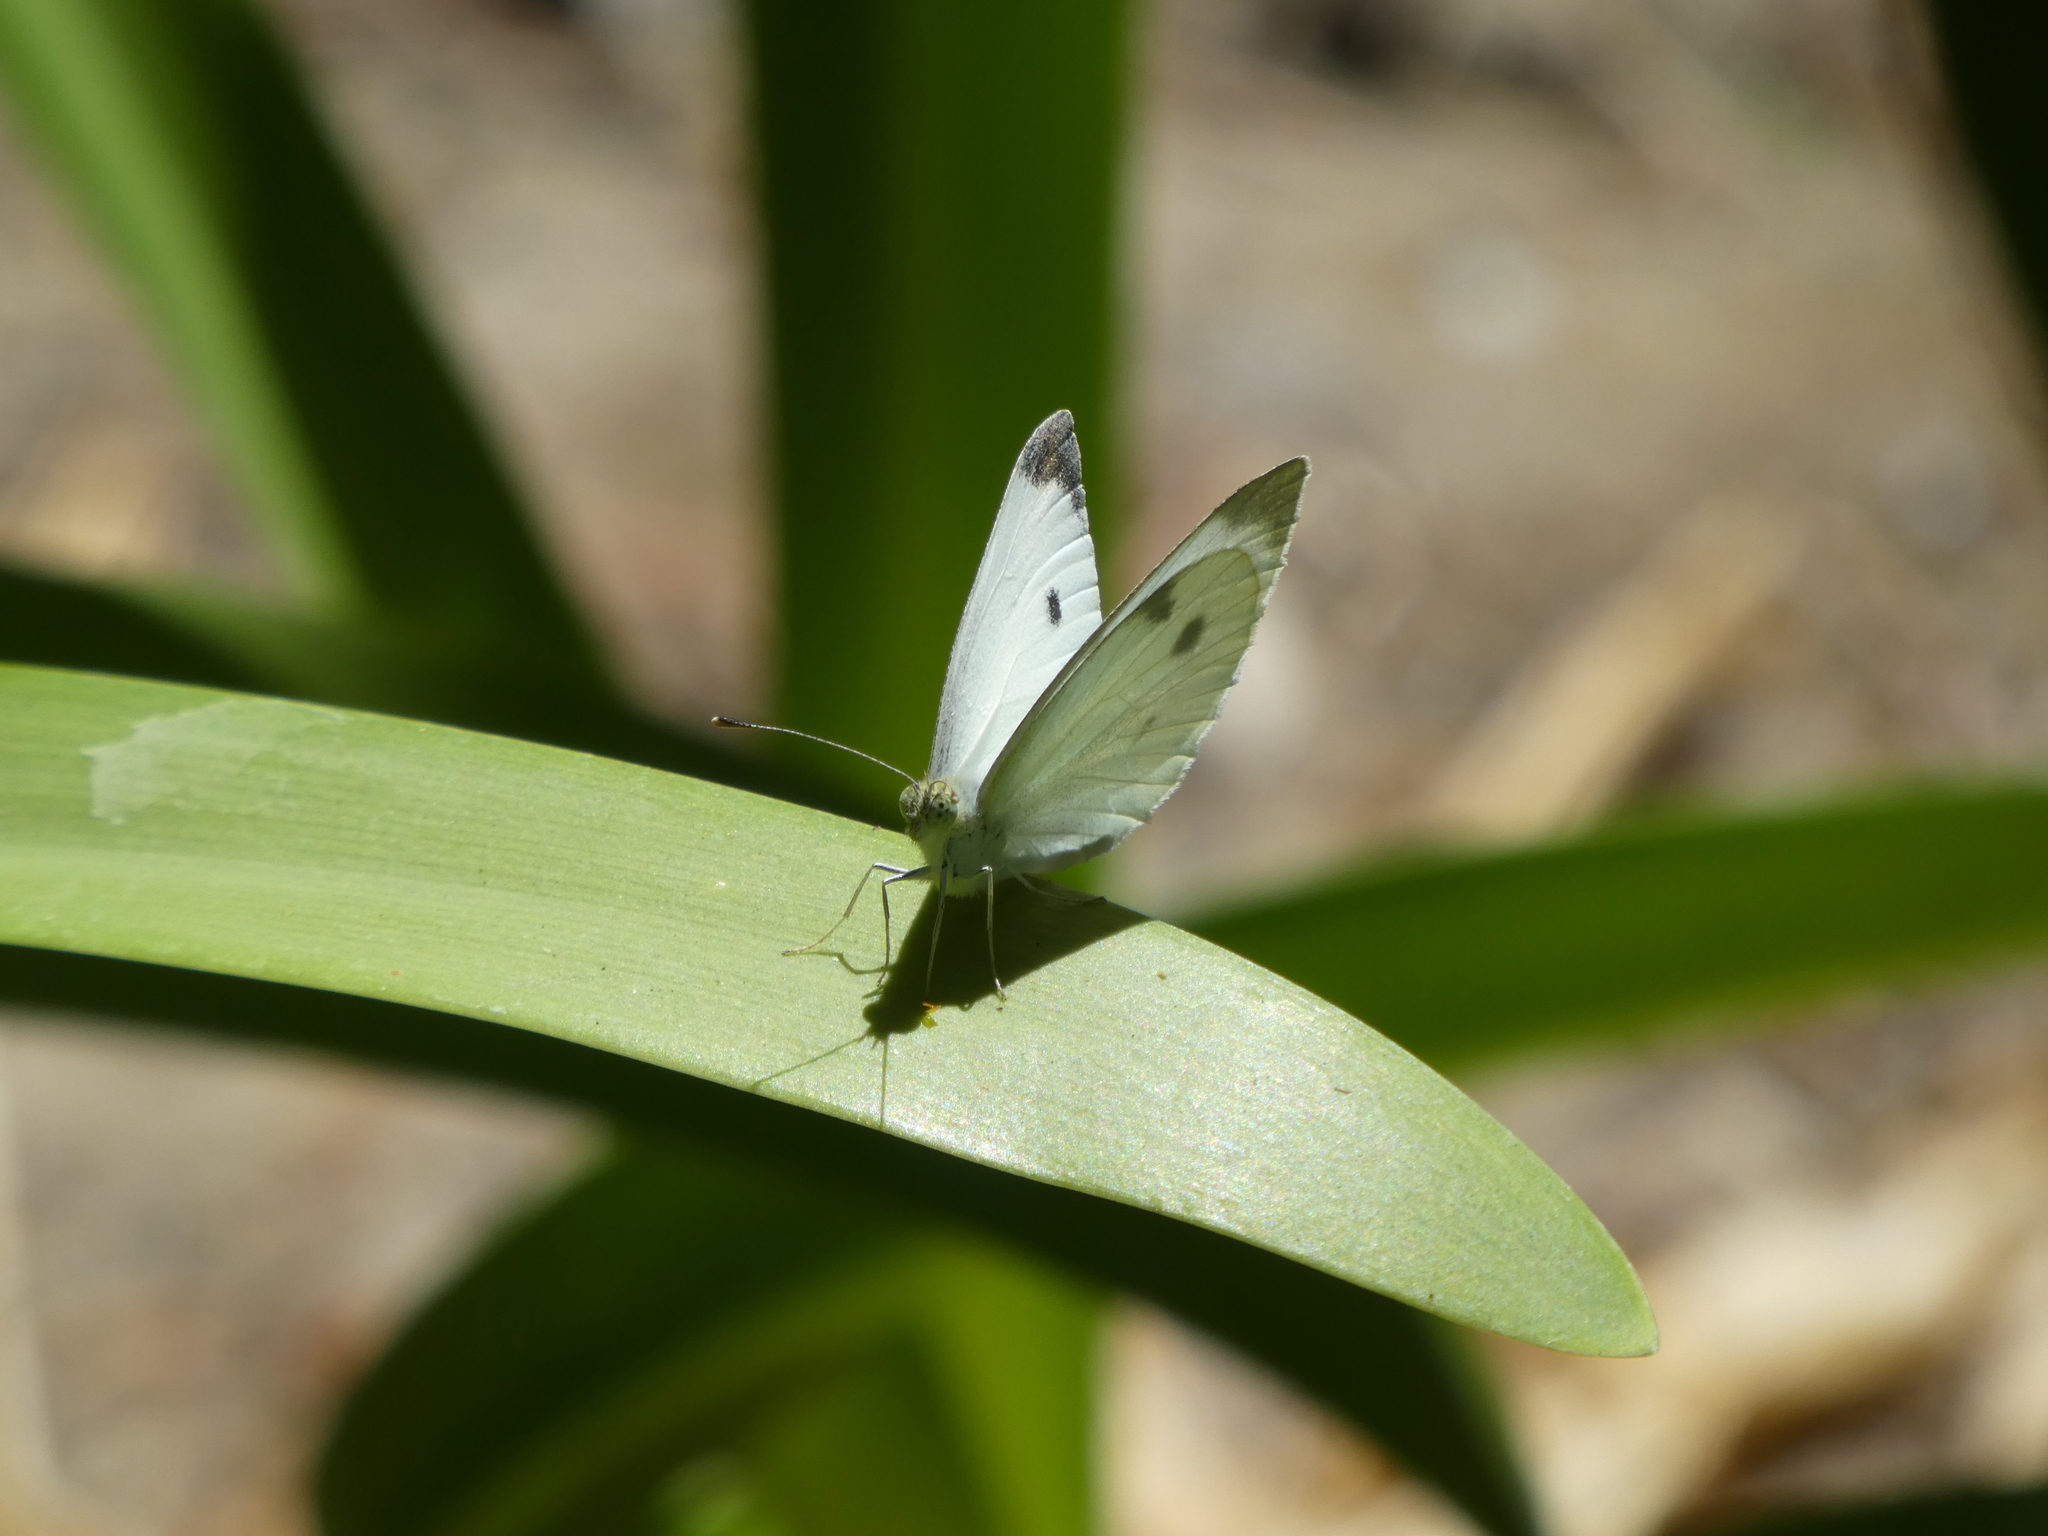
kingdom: Animalia
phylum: Arthropoda
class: Insecta
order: Lepidoptera
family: Pieridae
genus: Pieris
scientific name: Pieris rapae
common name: Small white
